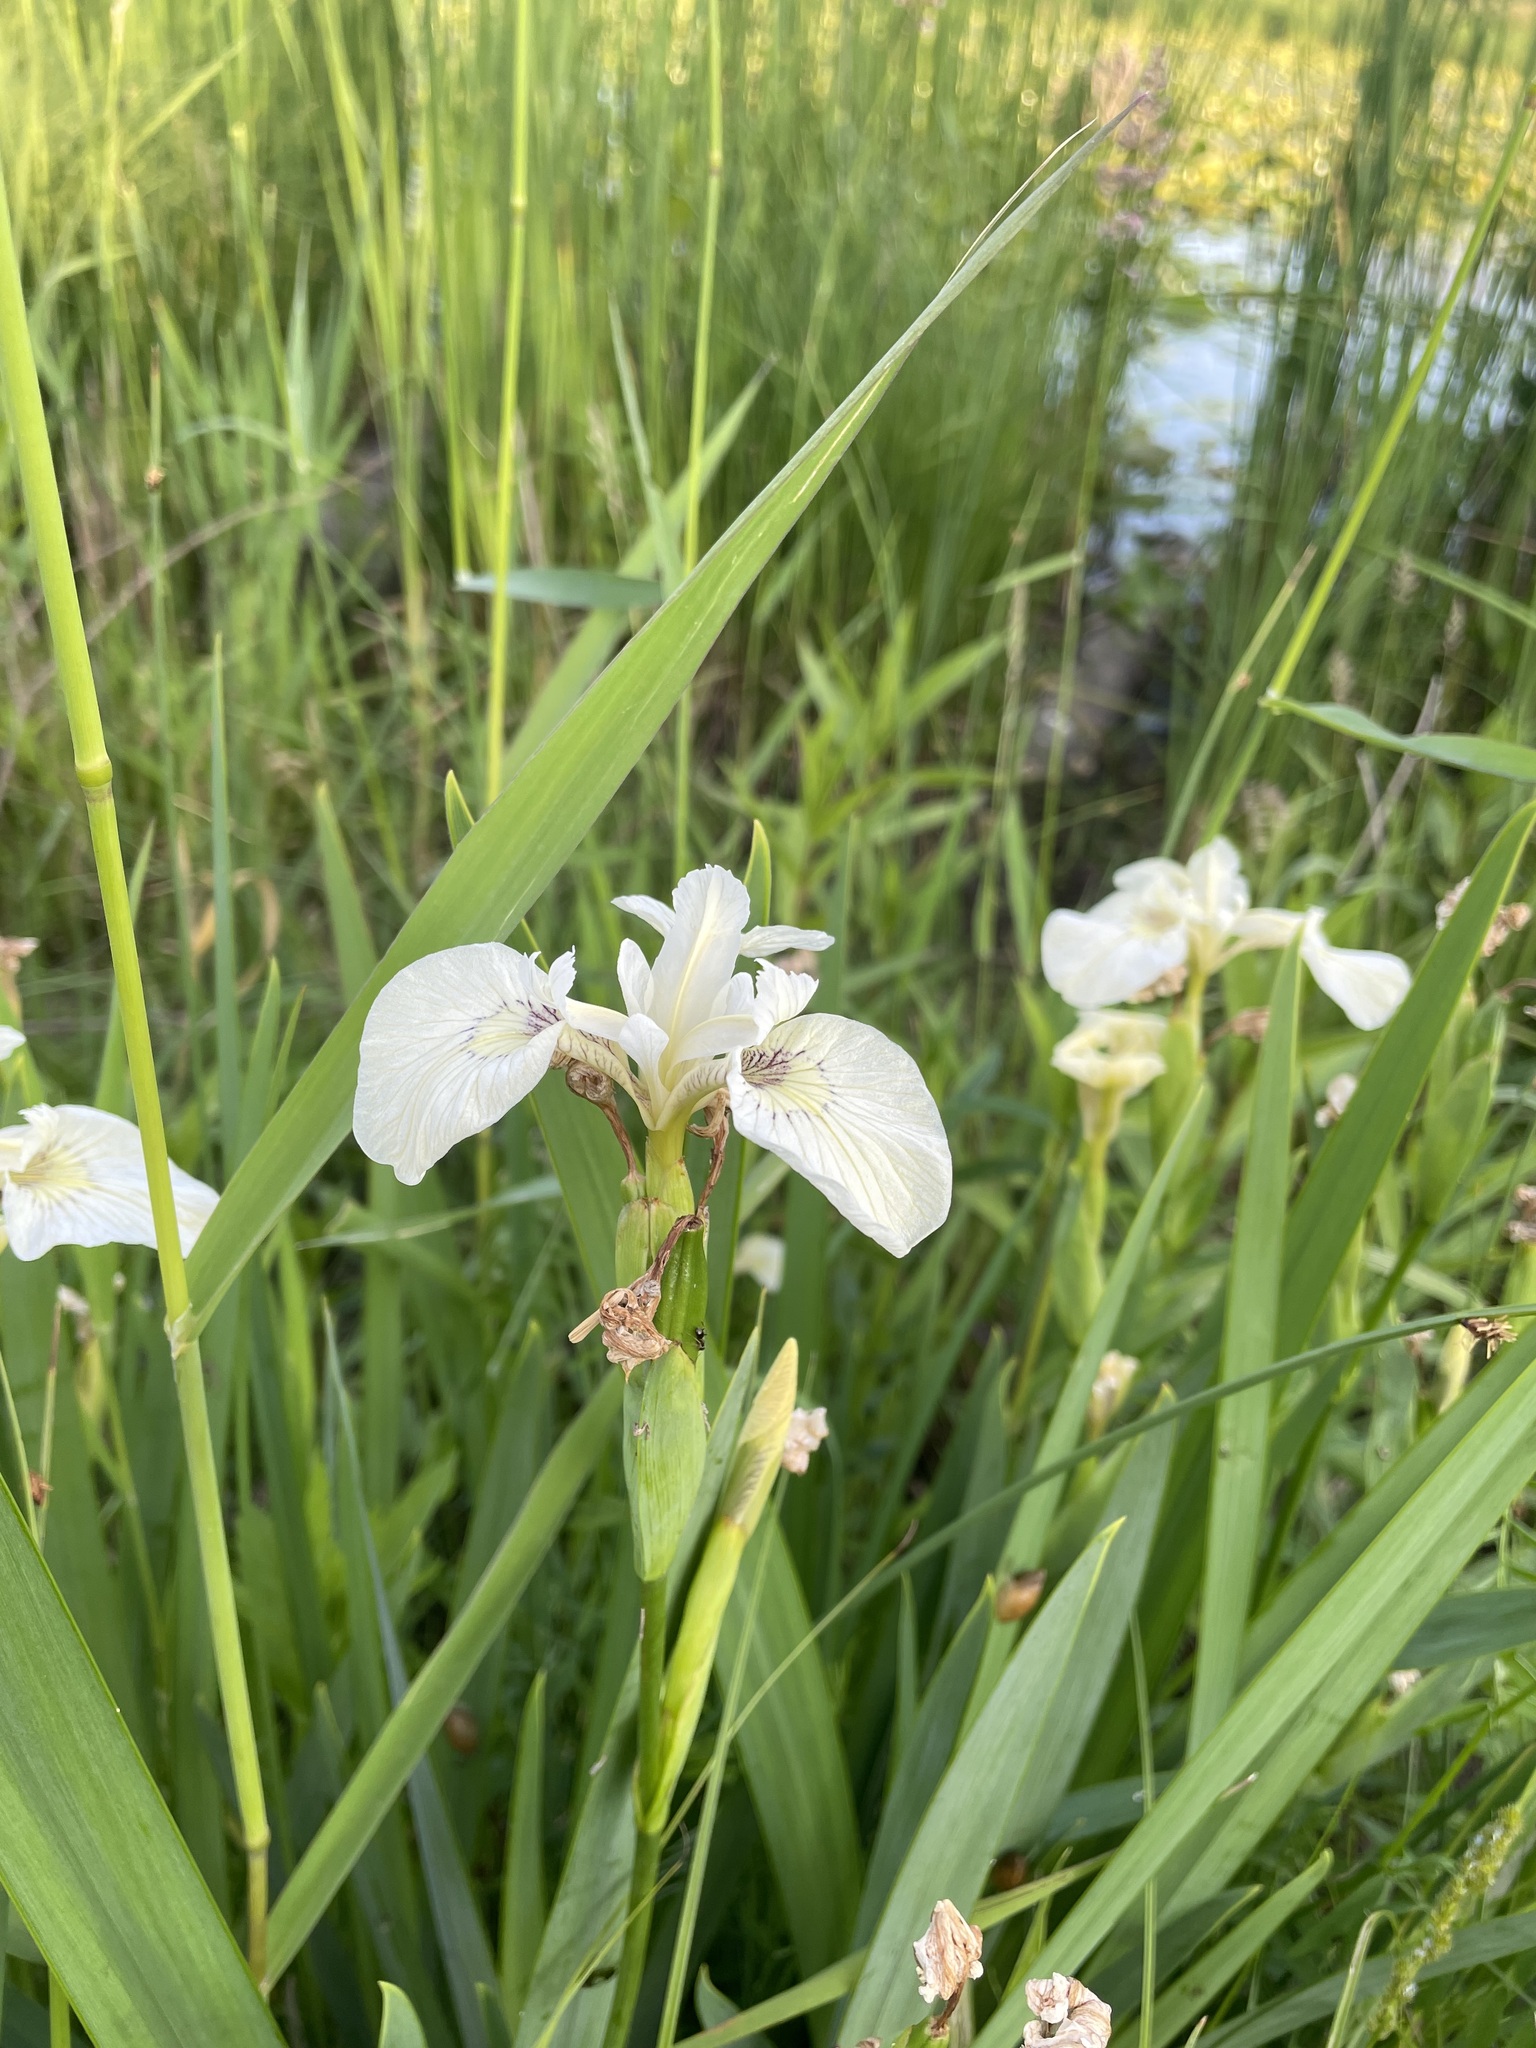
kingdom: Plantae
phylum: Tracheophyta
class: Liliopsida
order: Asparagales
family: Iridaceae
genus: Iris
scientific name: Iris pseudacorus
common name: Yellow flag
